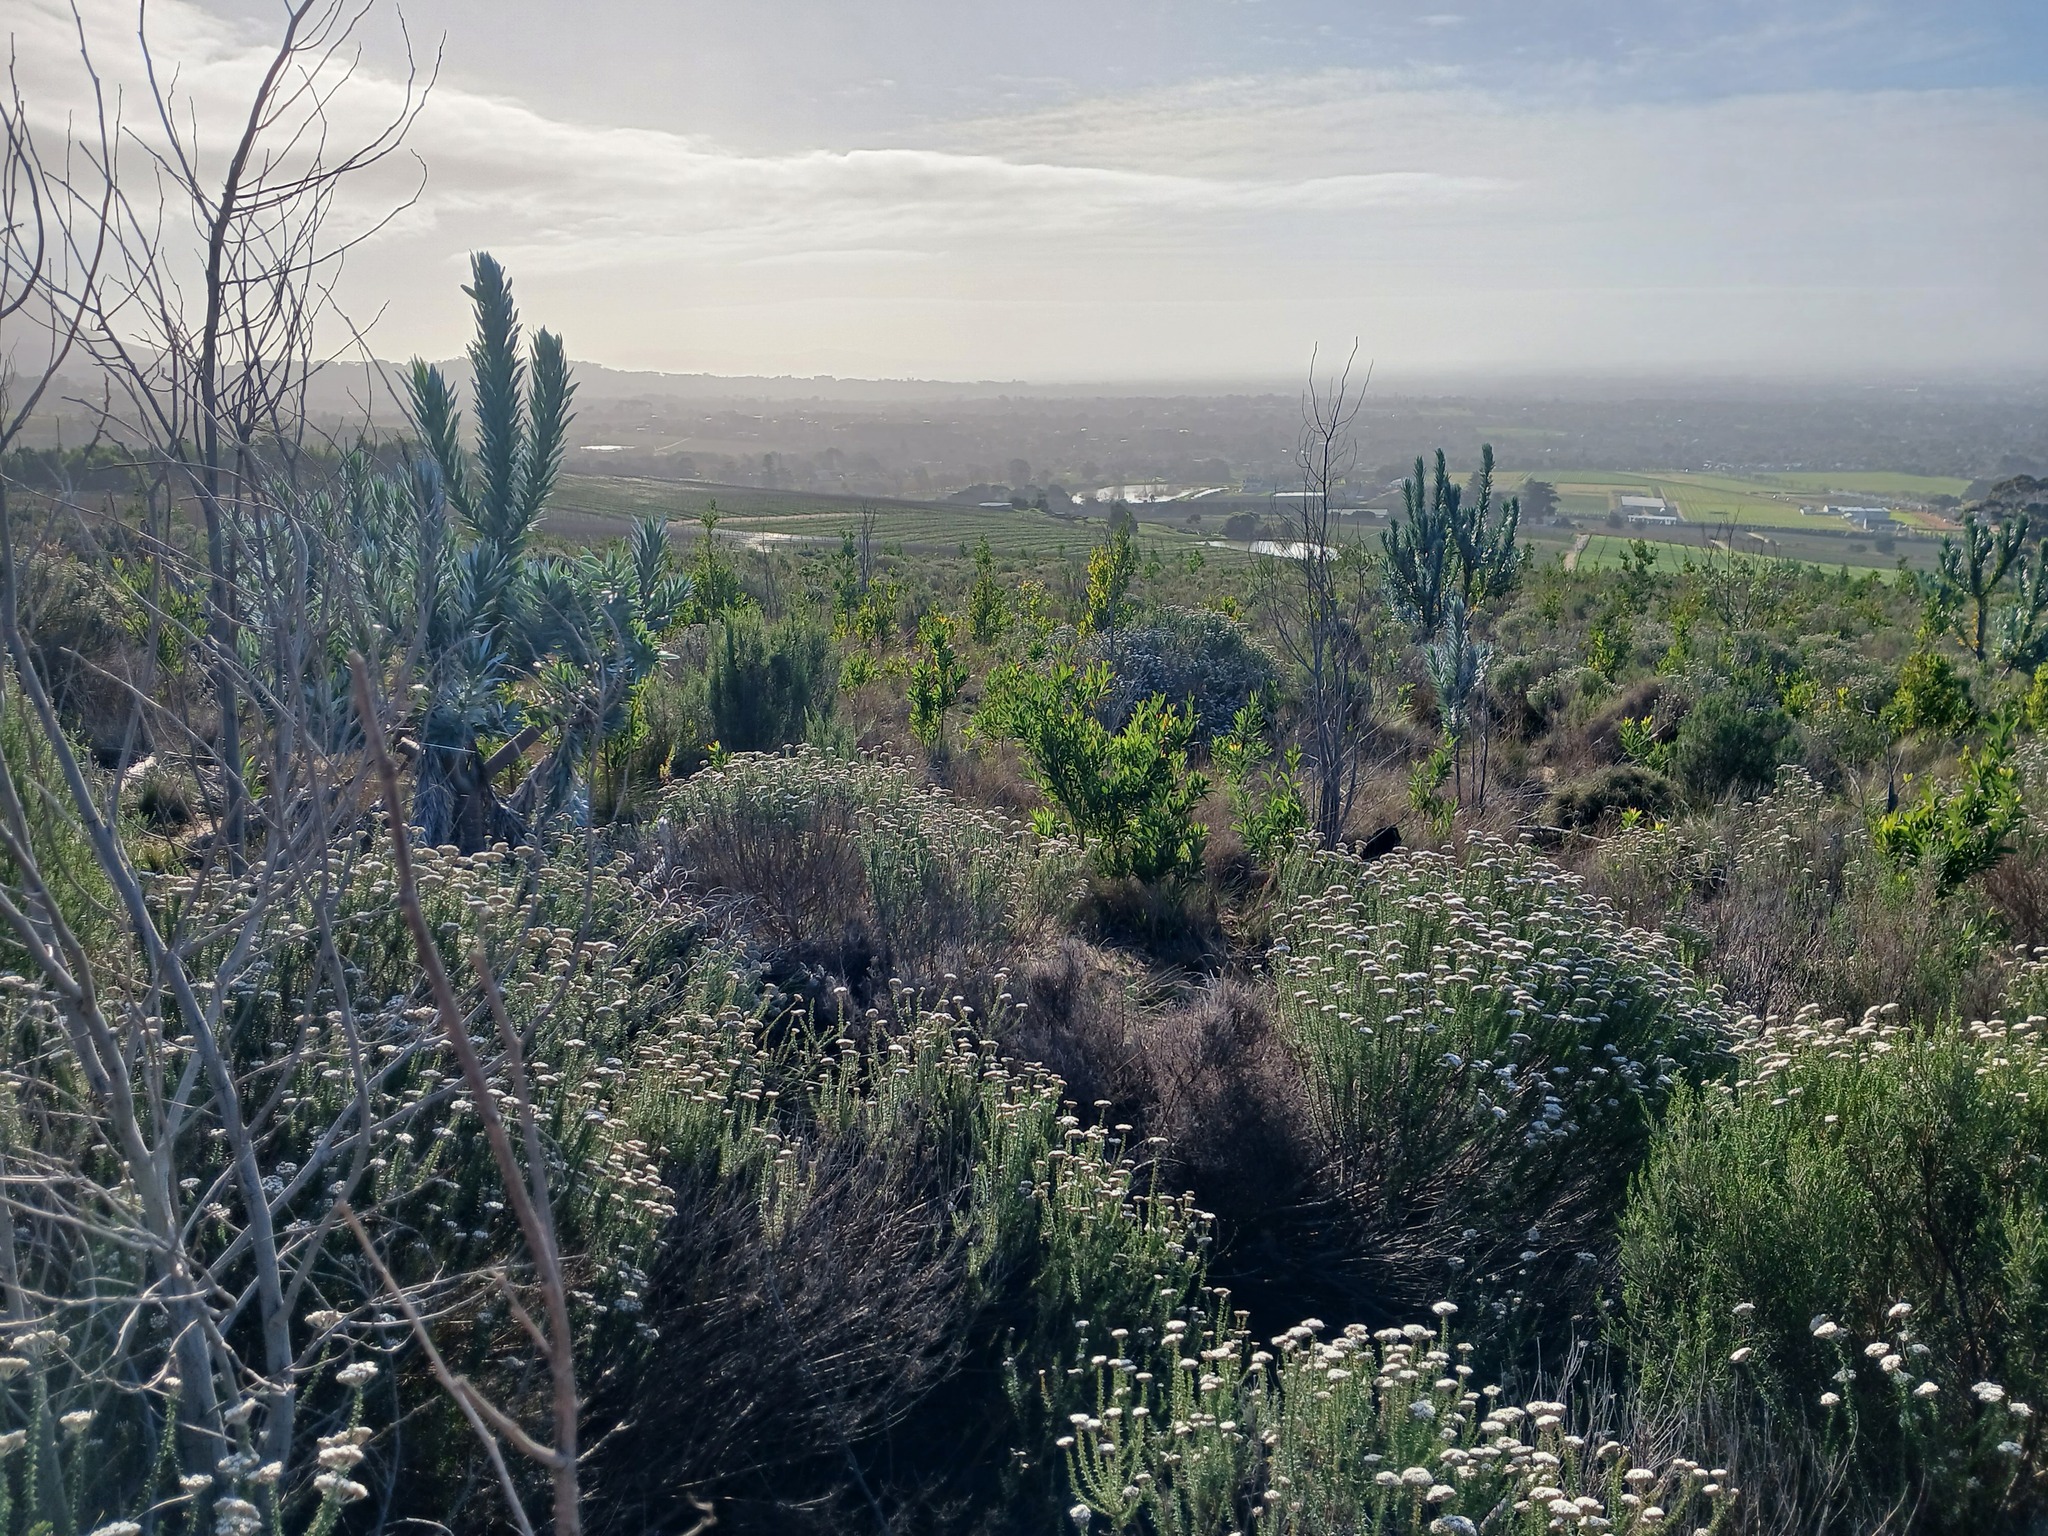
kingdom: Plantae
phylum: Tracheophyta
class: Magnoliopsida
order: Asterales
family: Asteraceae
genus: Metalasia
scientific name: Metalasia densa
